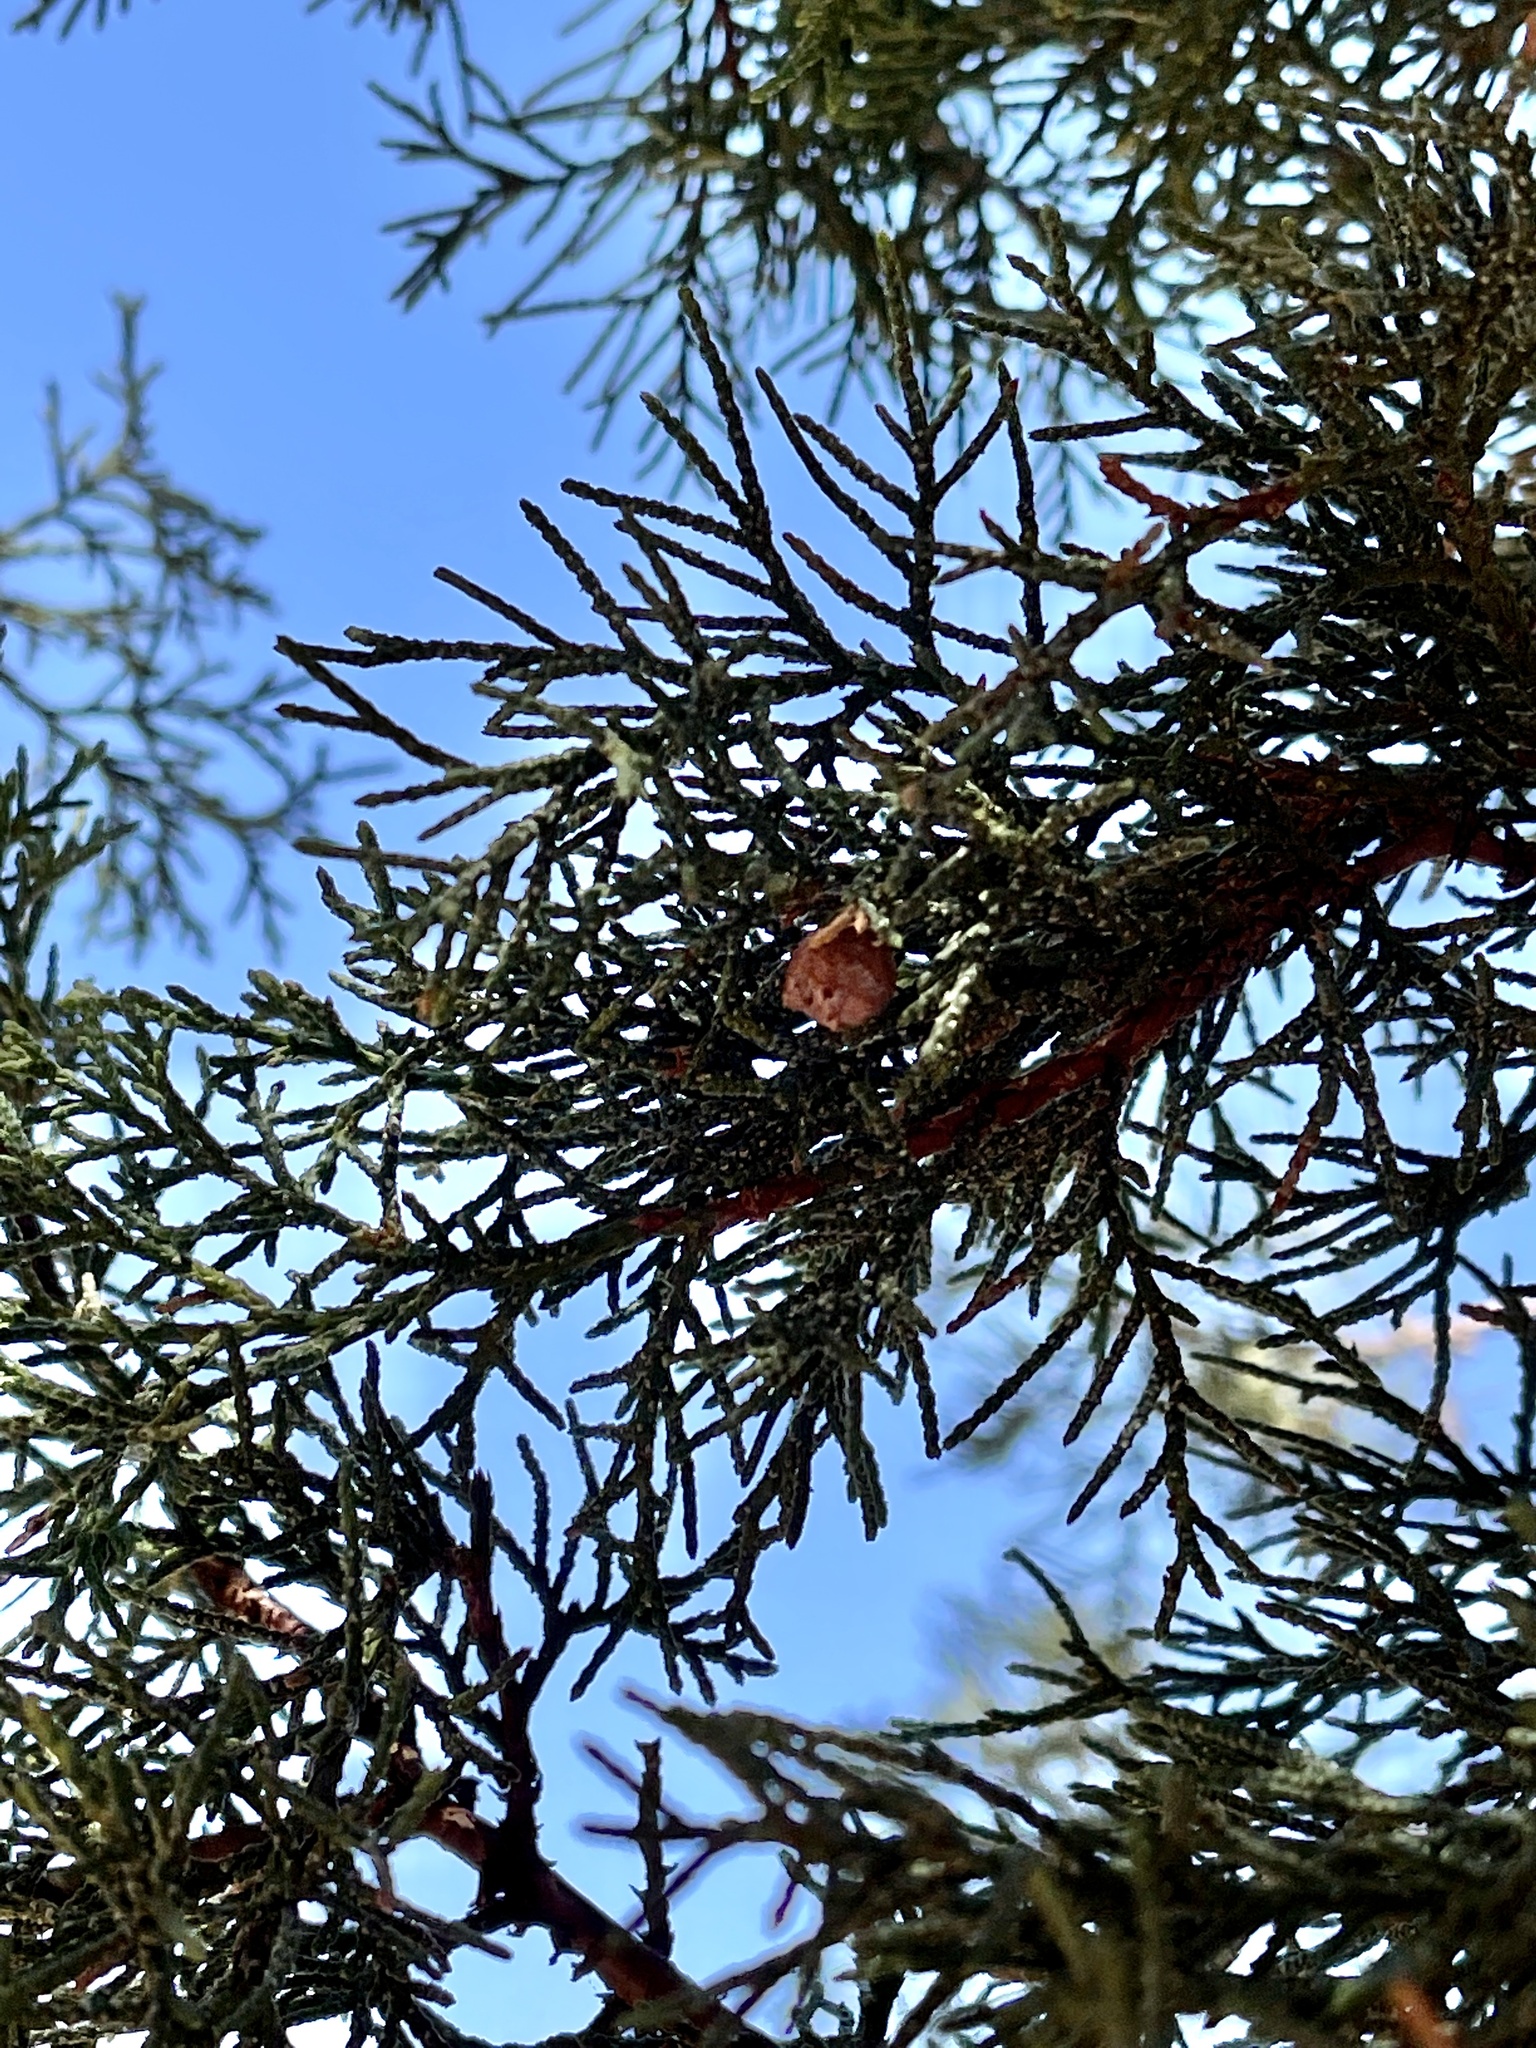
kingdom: Plantae
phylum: Tracheophyta
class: Pinopsida
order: Pinales
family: Cupressaceae
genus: Juniperus
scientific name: Juniperus deppeana
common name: Alligator juniper
